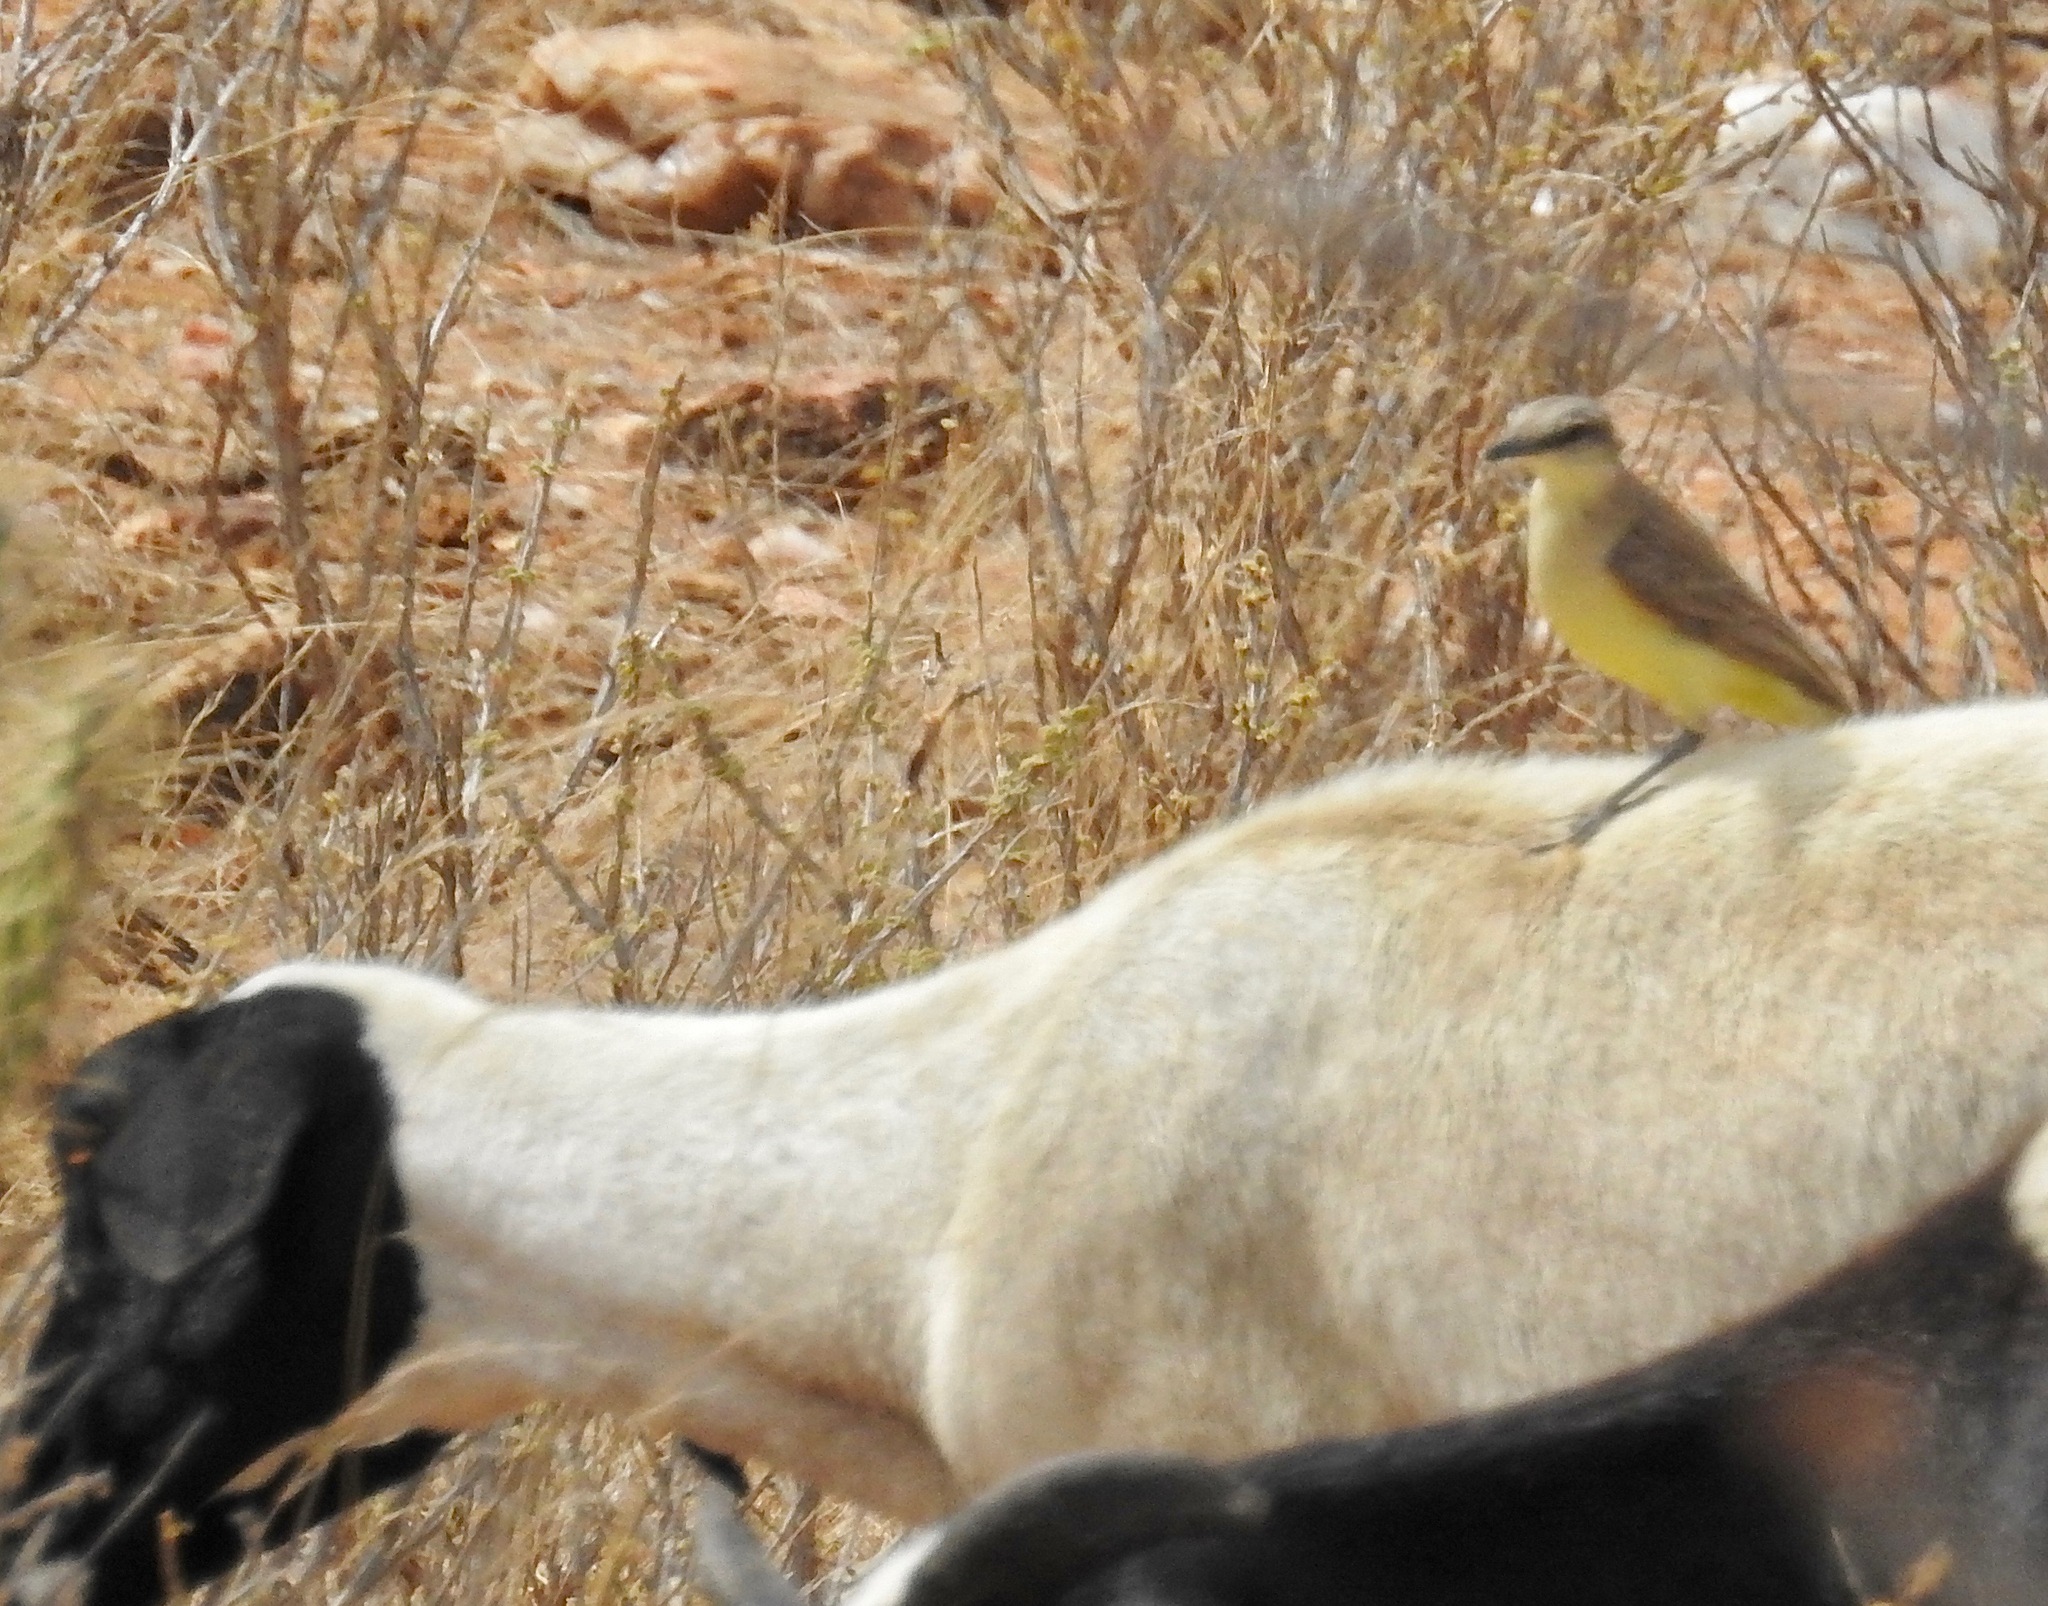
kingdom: Animalia
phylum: Chordata
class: Aves
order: Passeriformes
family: Tyrannidae
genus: Machetornis
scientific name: Machetornis rixosa
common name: Cattle tyrant
